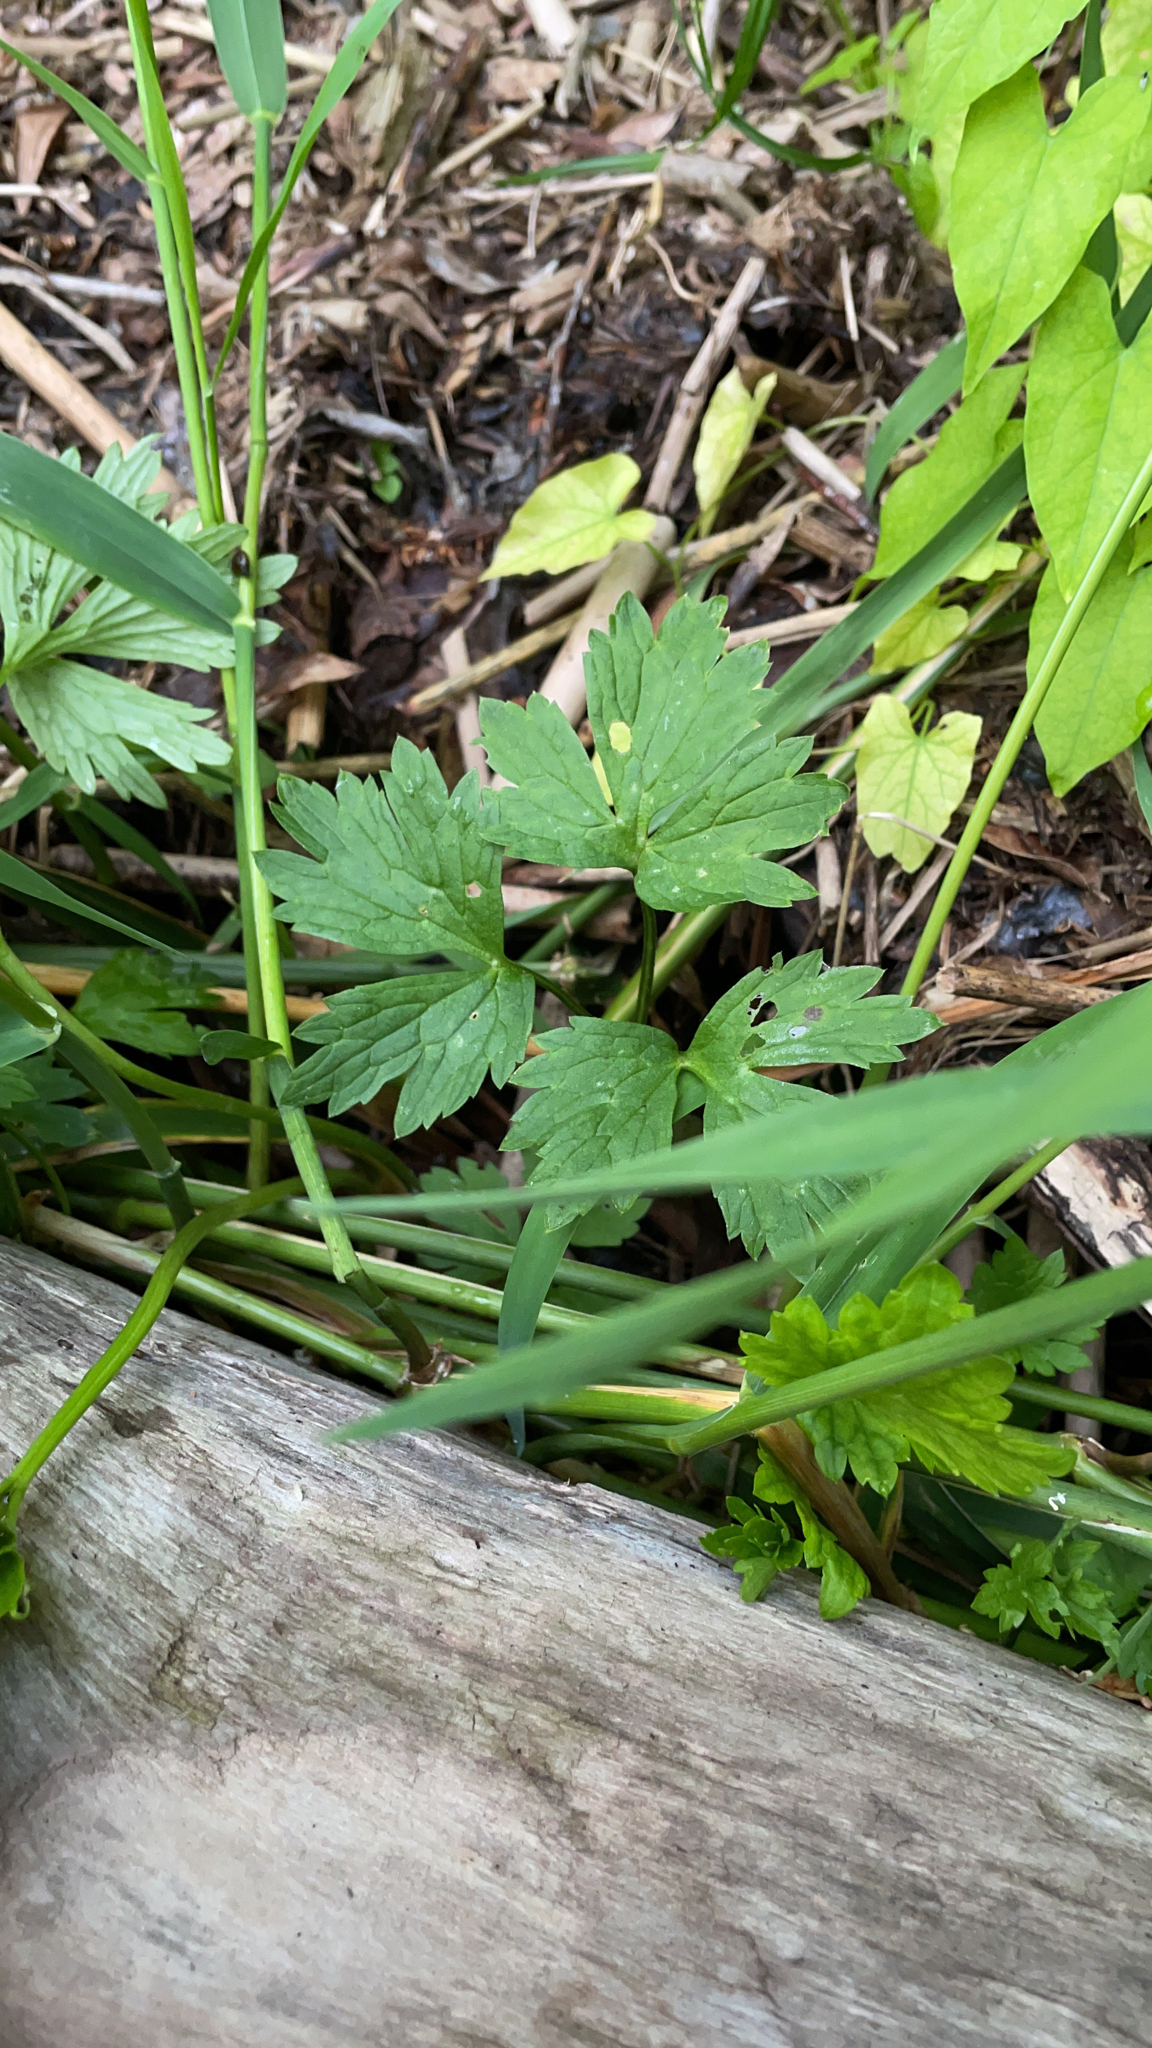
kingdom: Plantae
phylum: Tracheophyta
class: Magnoliopsida
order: Ranunculales
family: Ranunculaceae
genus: Ranunculus
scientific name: Ranunculus repens
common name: Creeping buttercup
